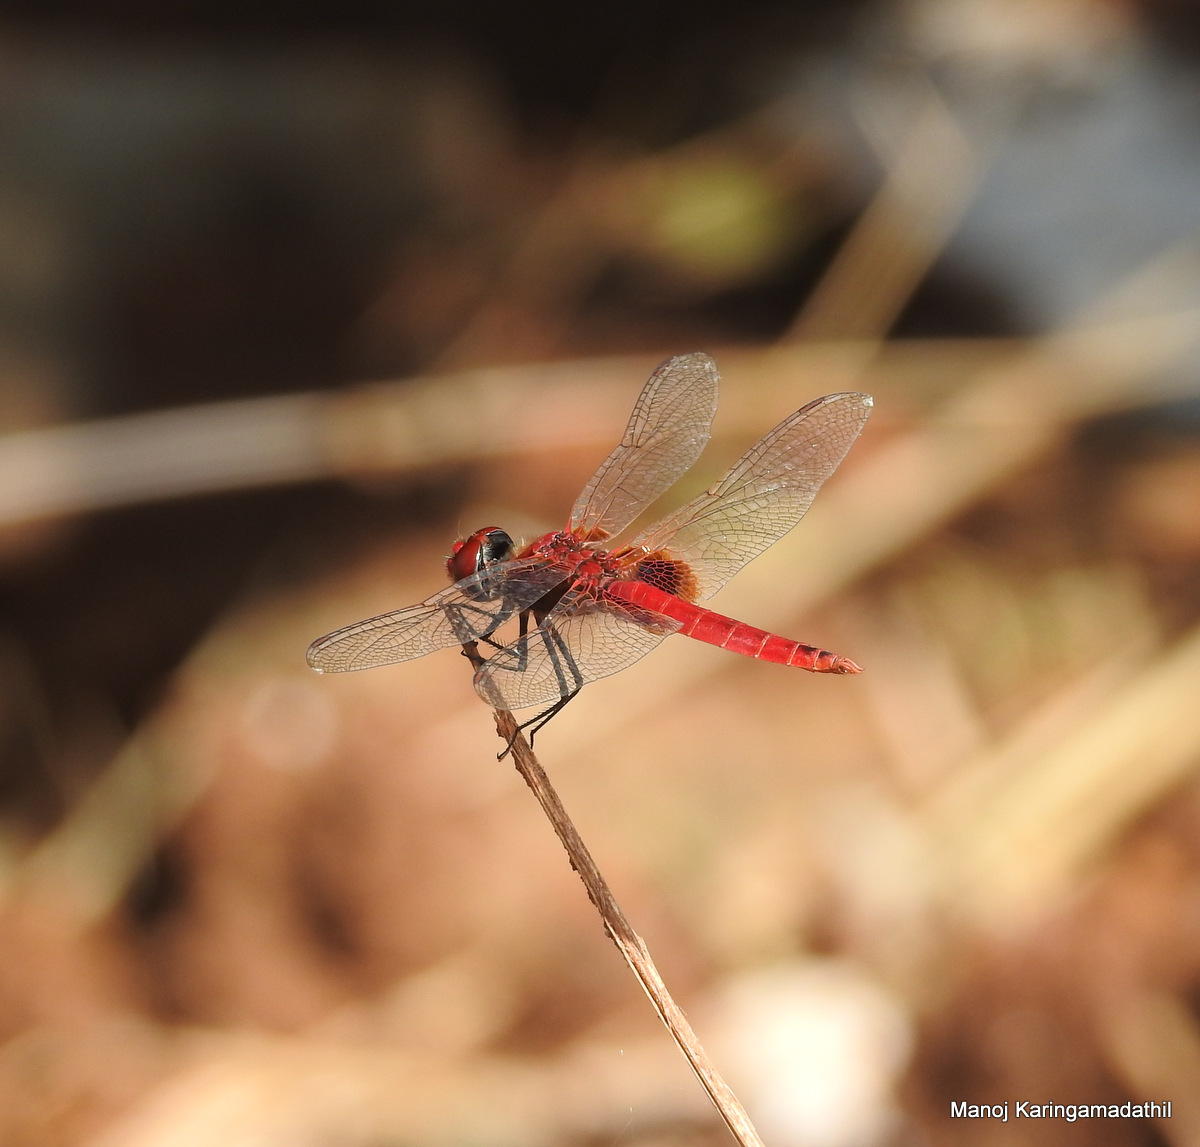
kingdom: Animalia
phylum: Arthropoda
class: Insecta
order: Odonata
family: Libellulidae
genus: Urothemis
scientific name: Urothemis signata
